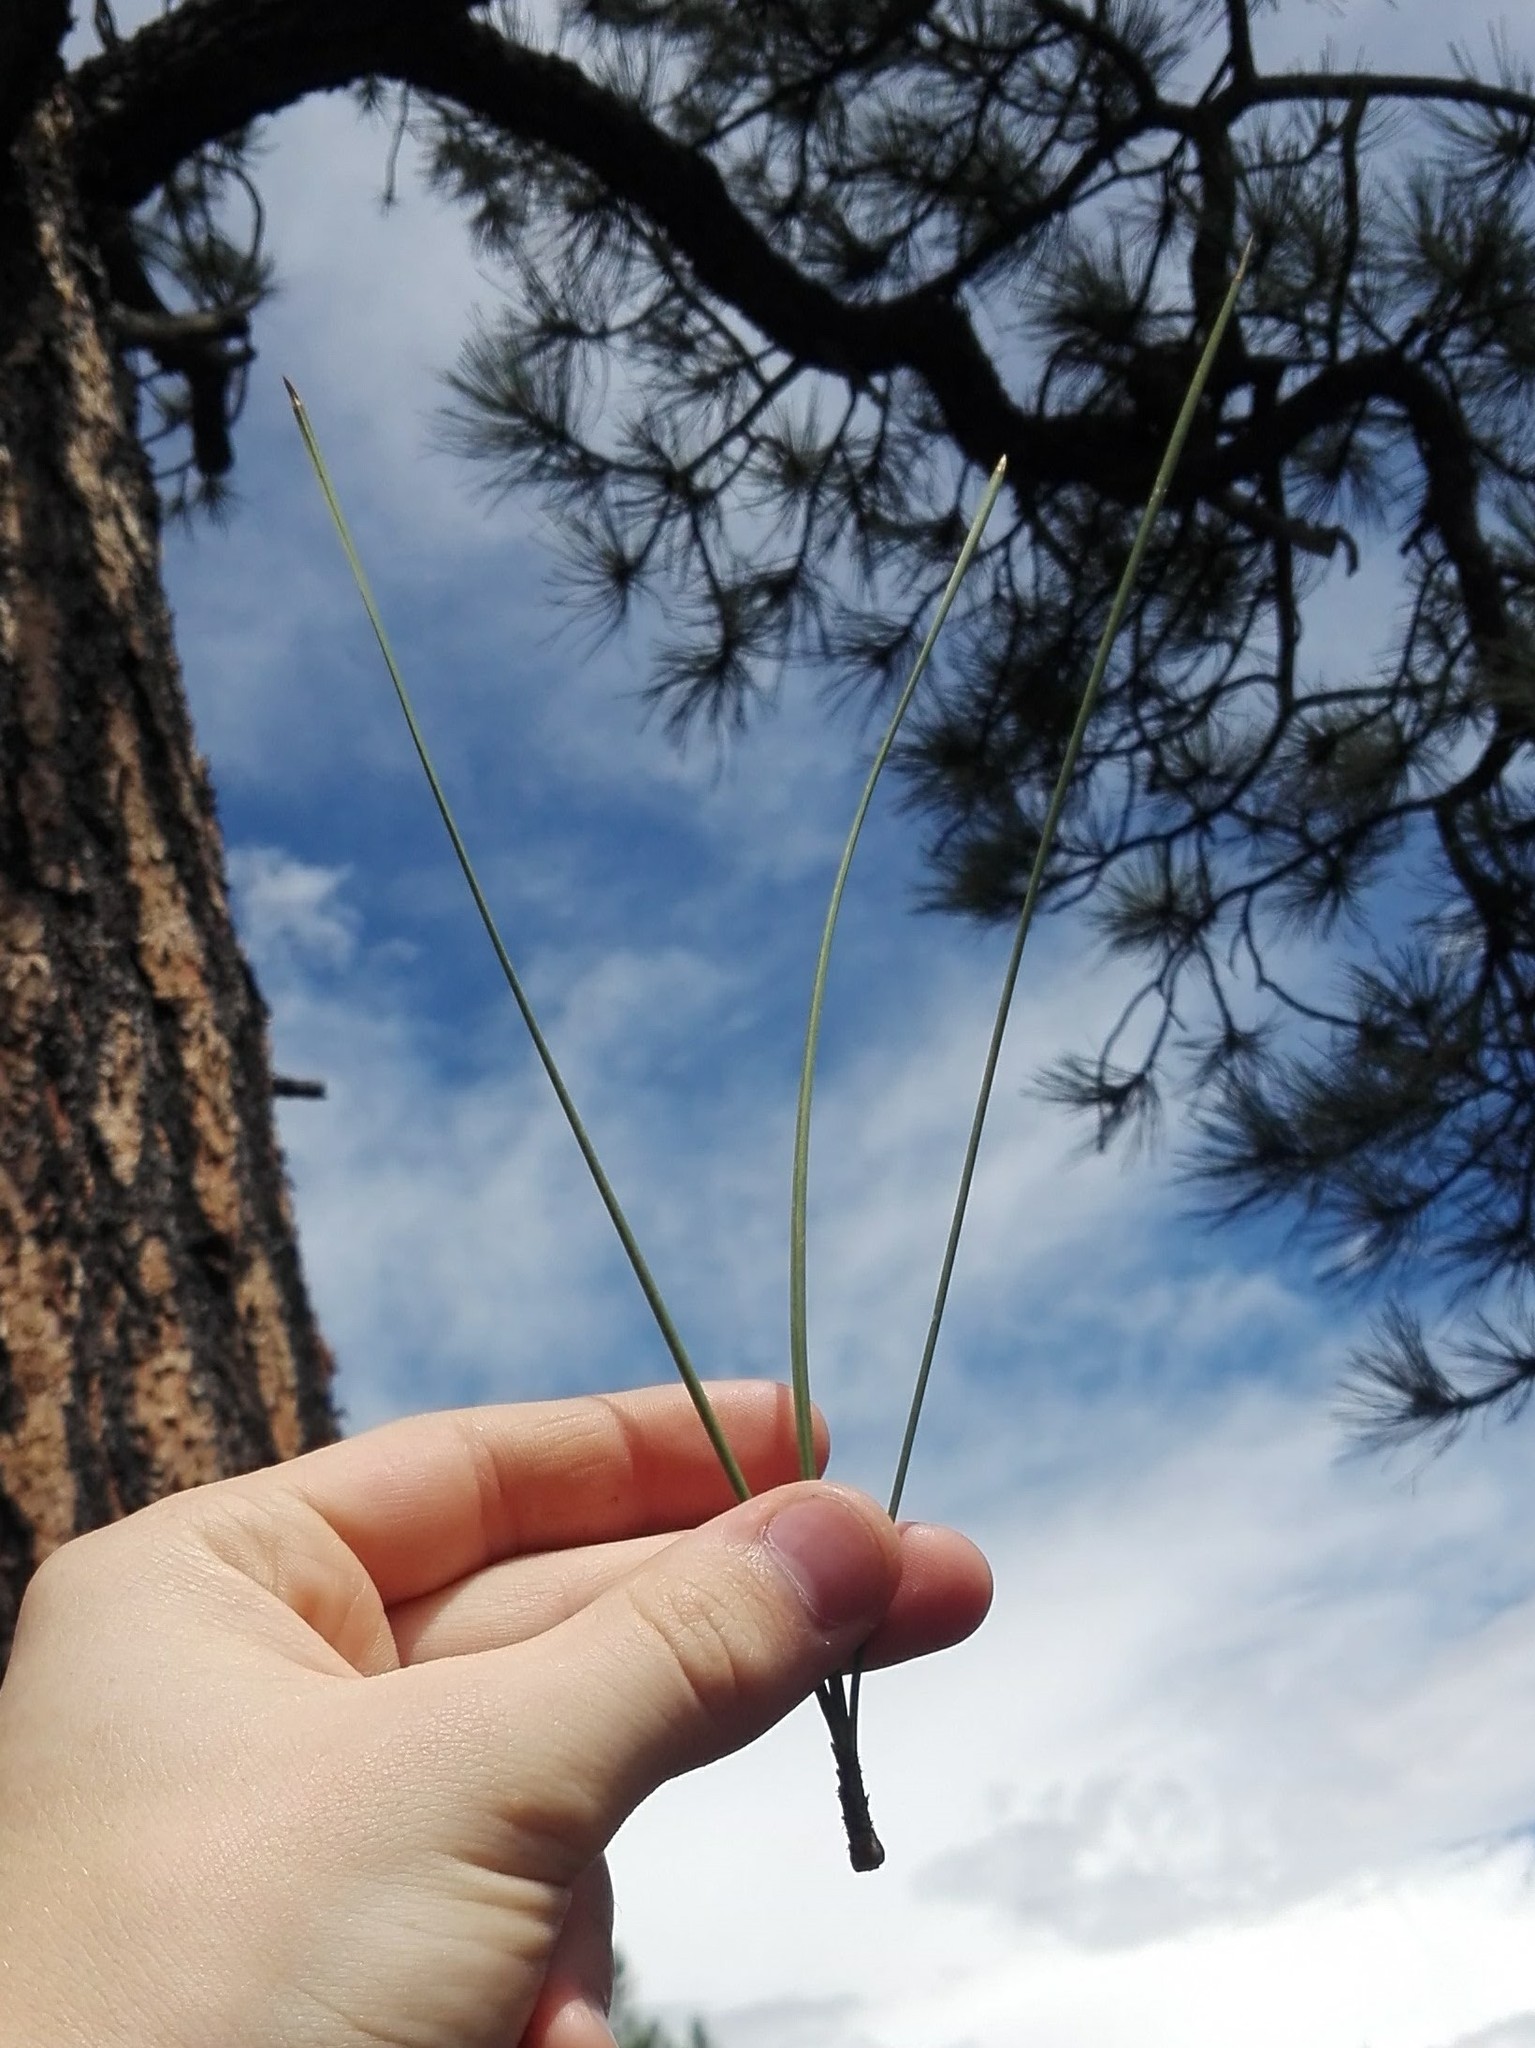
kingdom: Plantae
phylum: Tracheophyta
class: Pinopsida
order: Pinales
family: Pinaceae
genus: Pinus
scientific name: Pinus ponderosa
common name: Western yellow-pine
